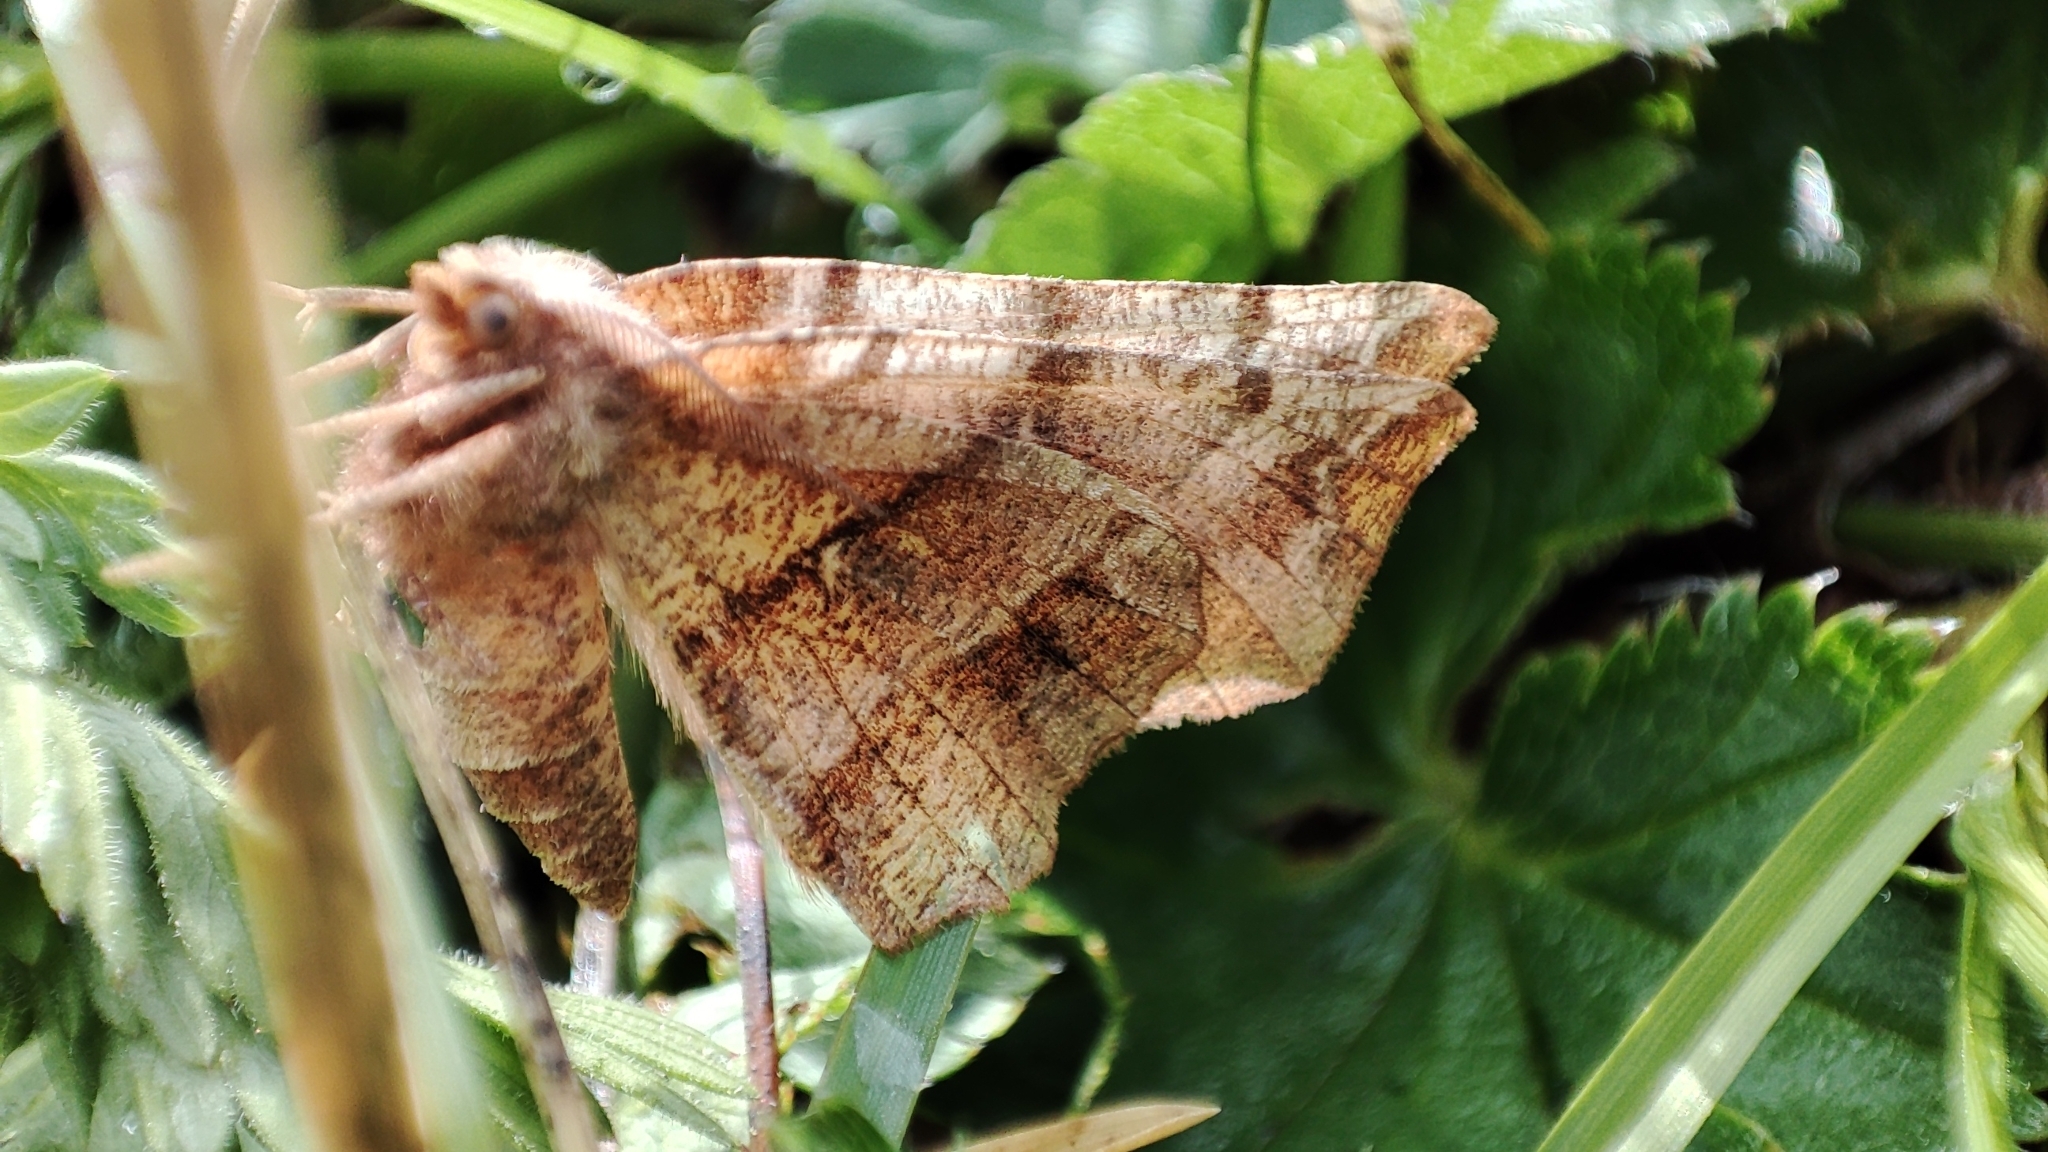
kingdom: Animalia
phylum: Arthropoda
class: Insecta
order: Lepidoptera
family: Geometridae
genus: Selenia
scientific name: Selenia dentaria
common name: Early thorn
